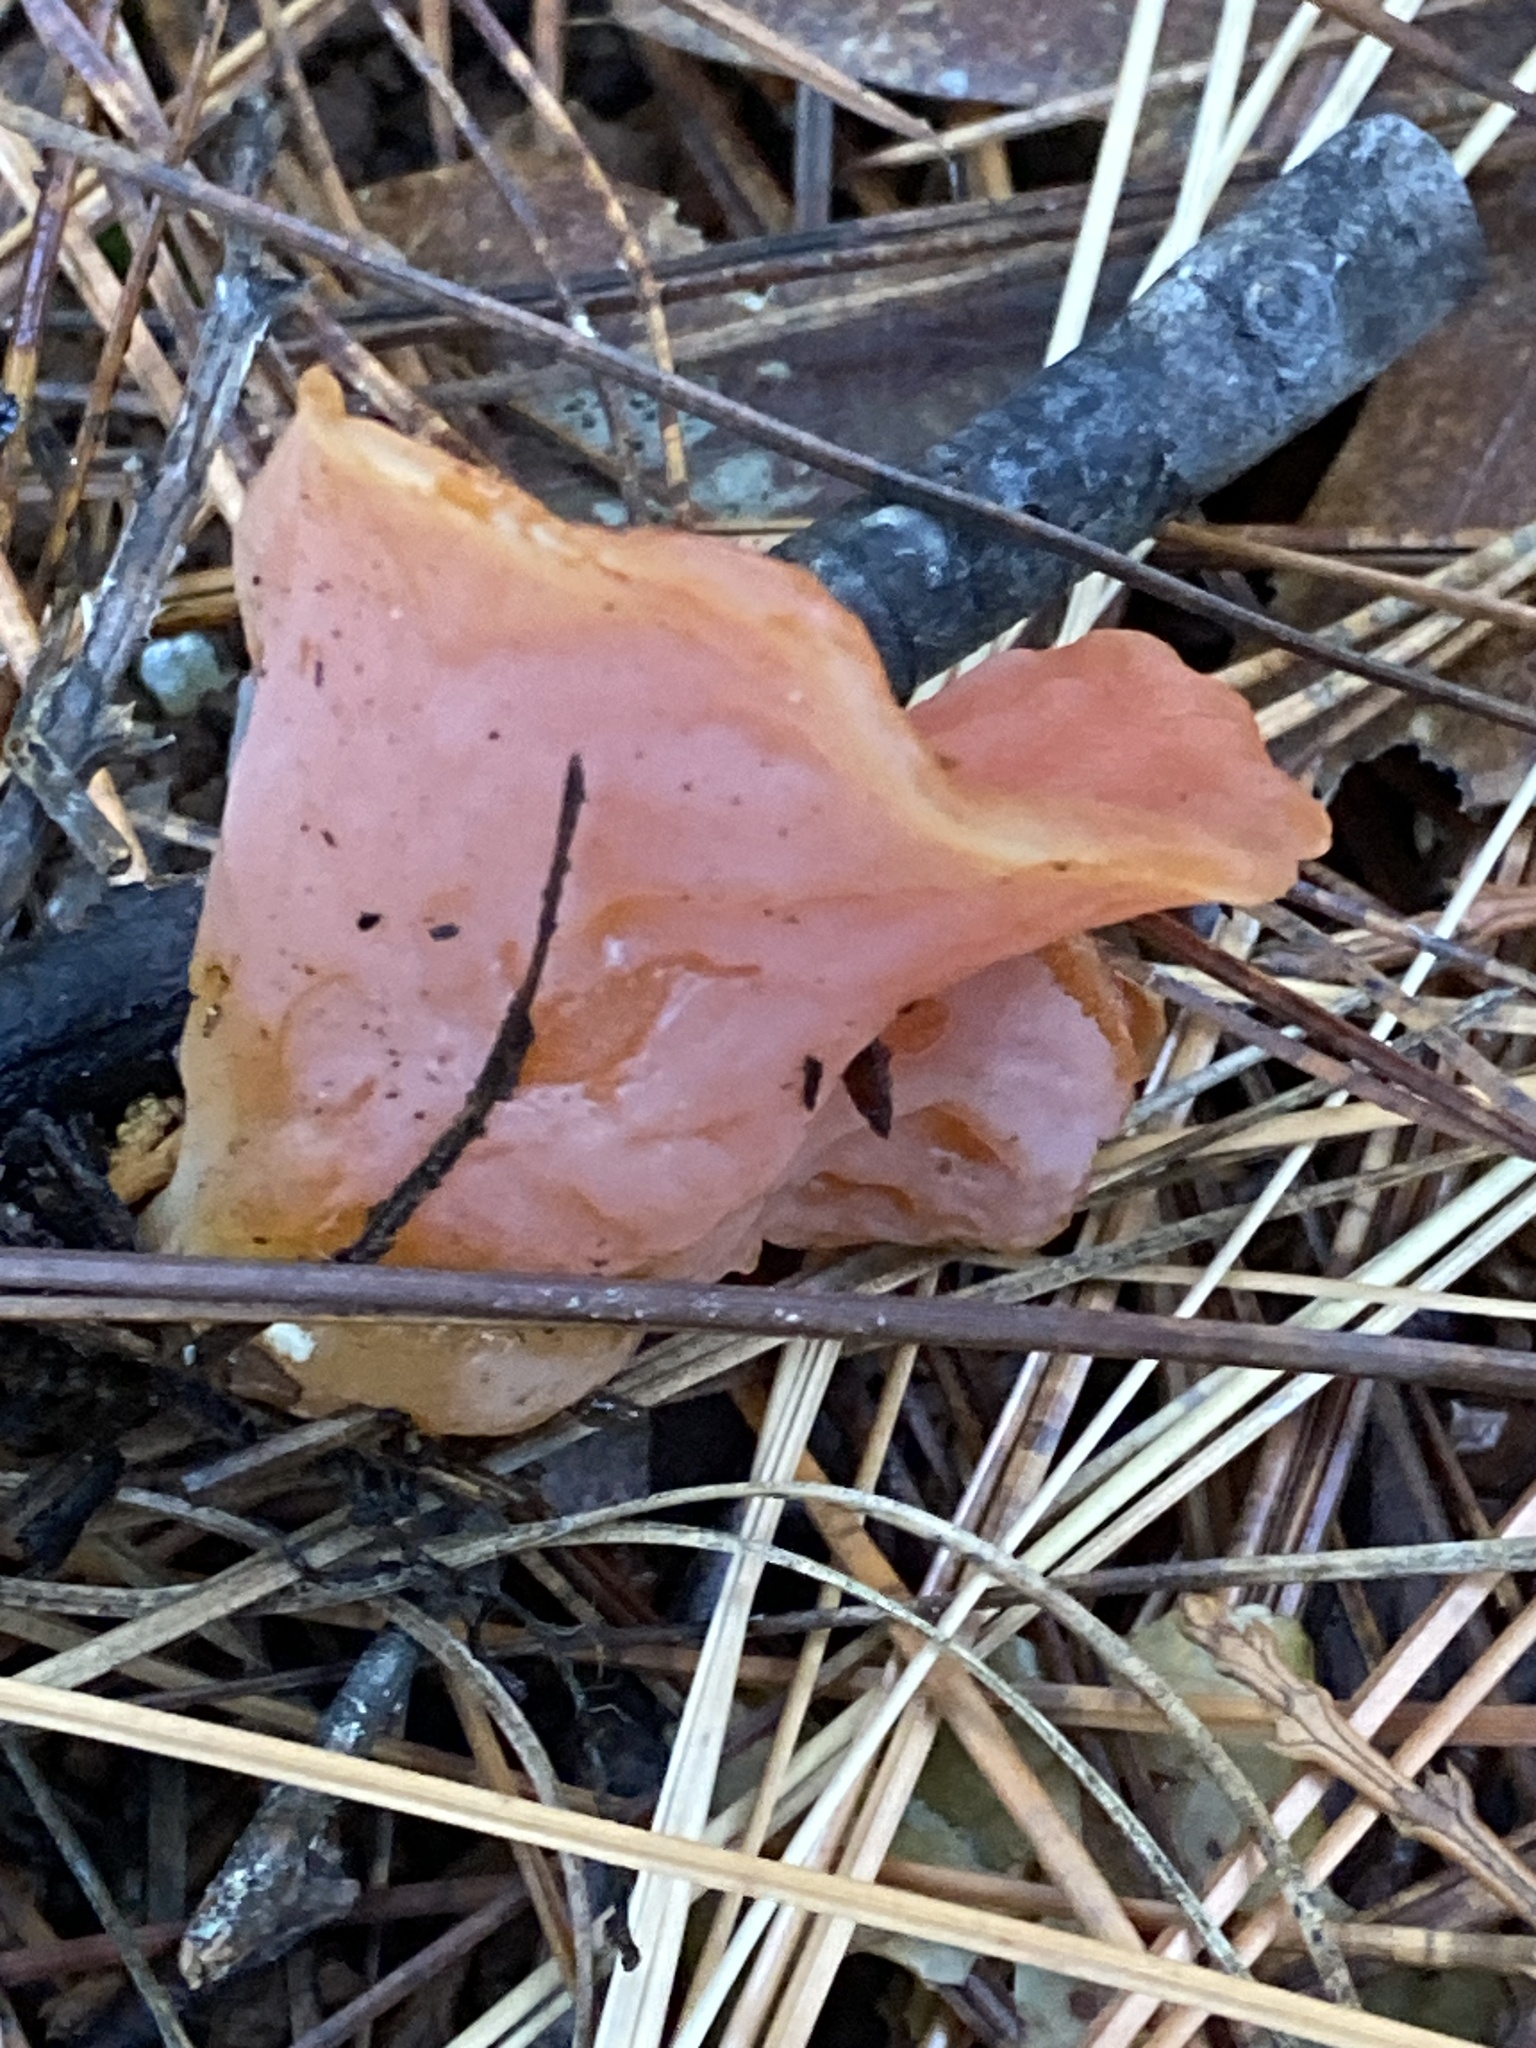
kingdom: Fungi
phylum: Basidiomycota
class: Agaricomycetes
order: Auriculariales
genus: Guepinia
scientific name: Guepinia helvelloides
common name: Salmon salad
